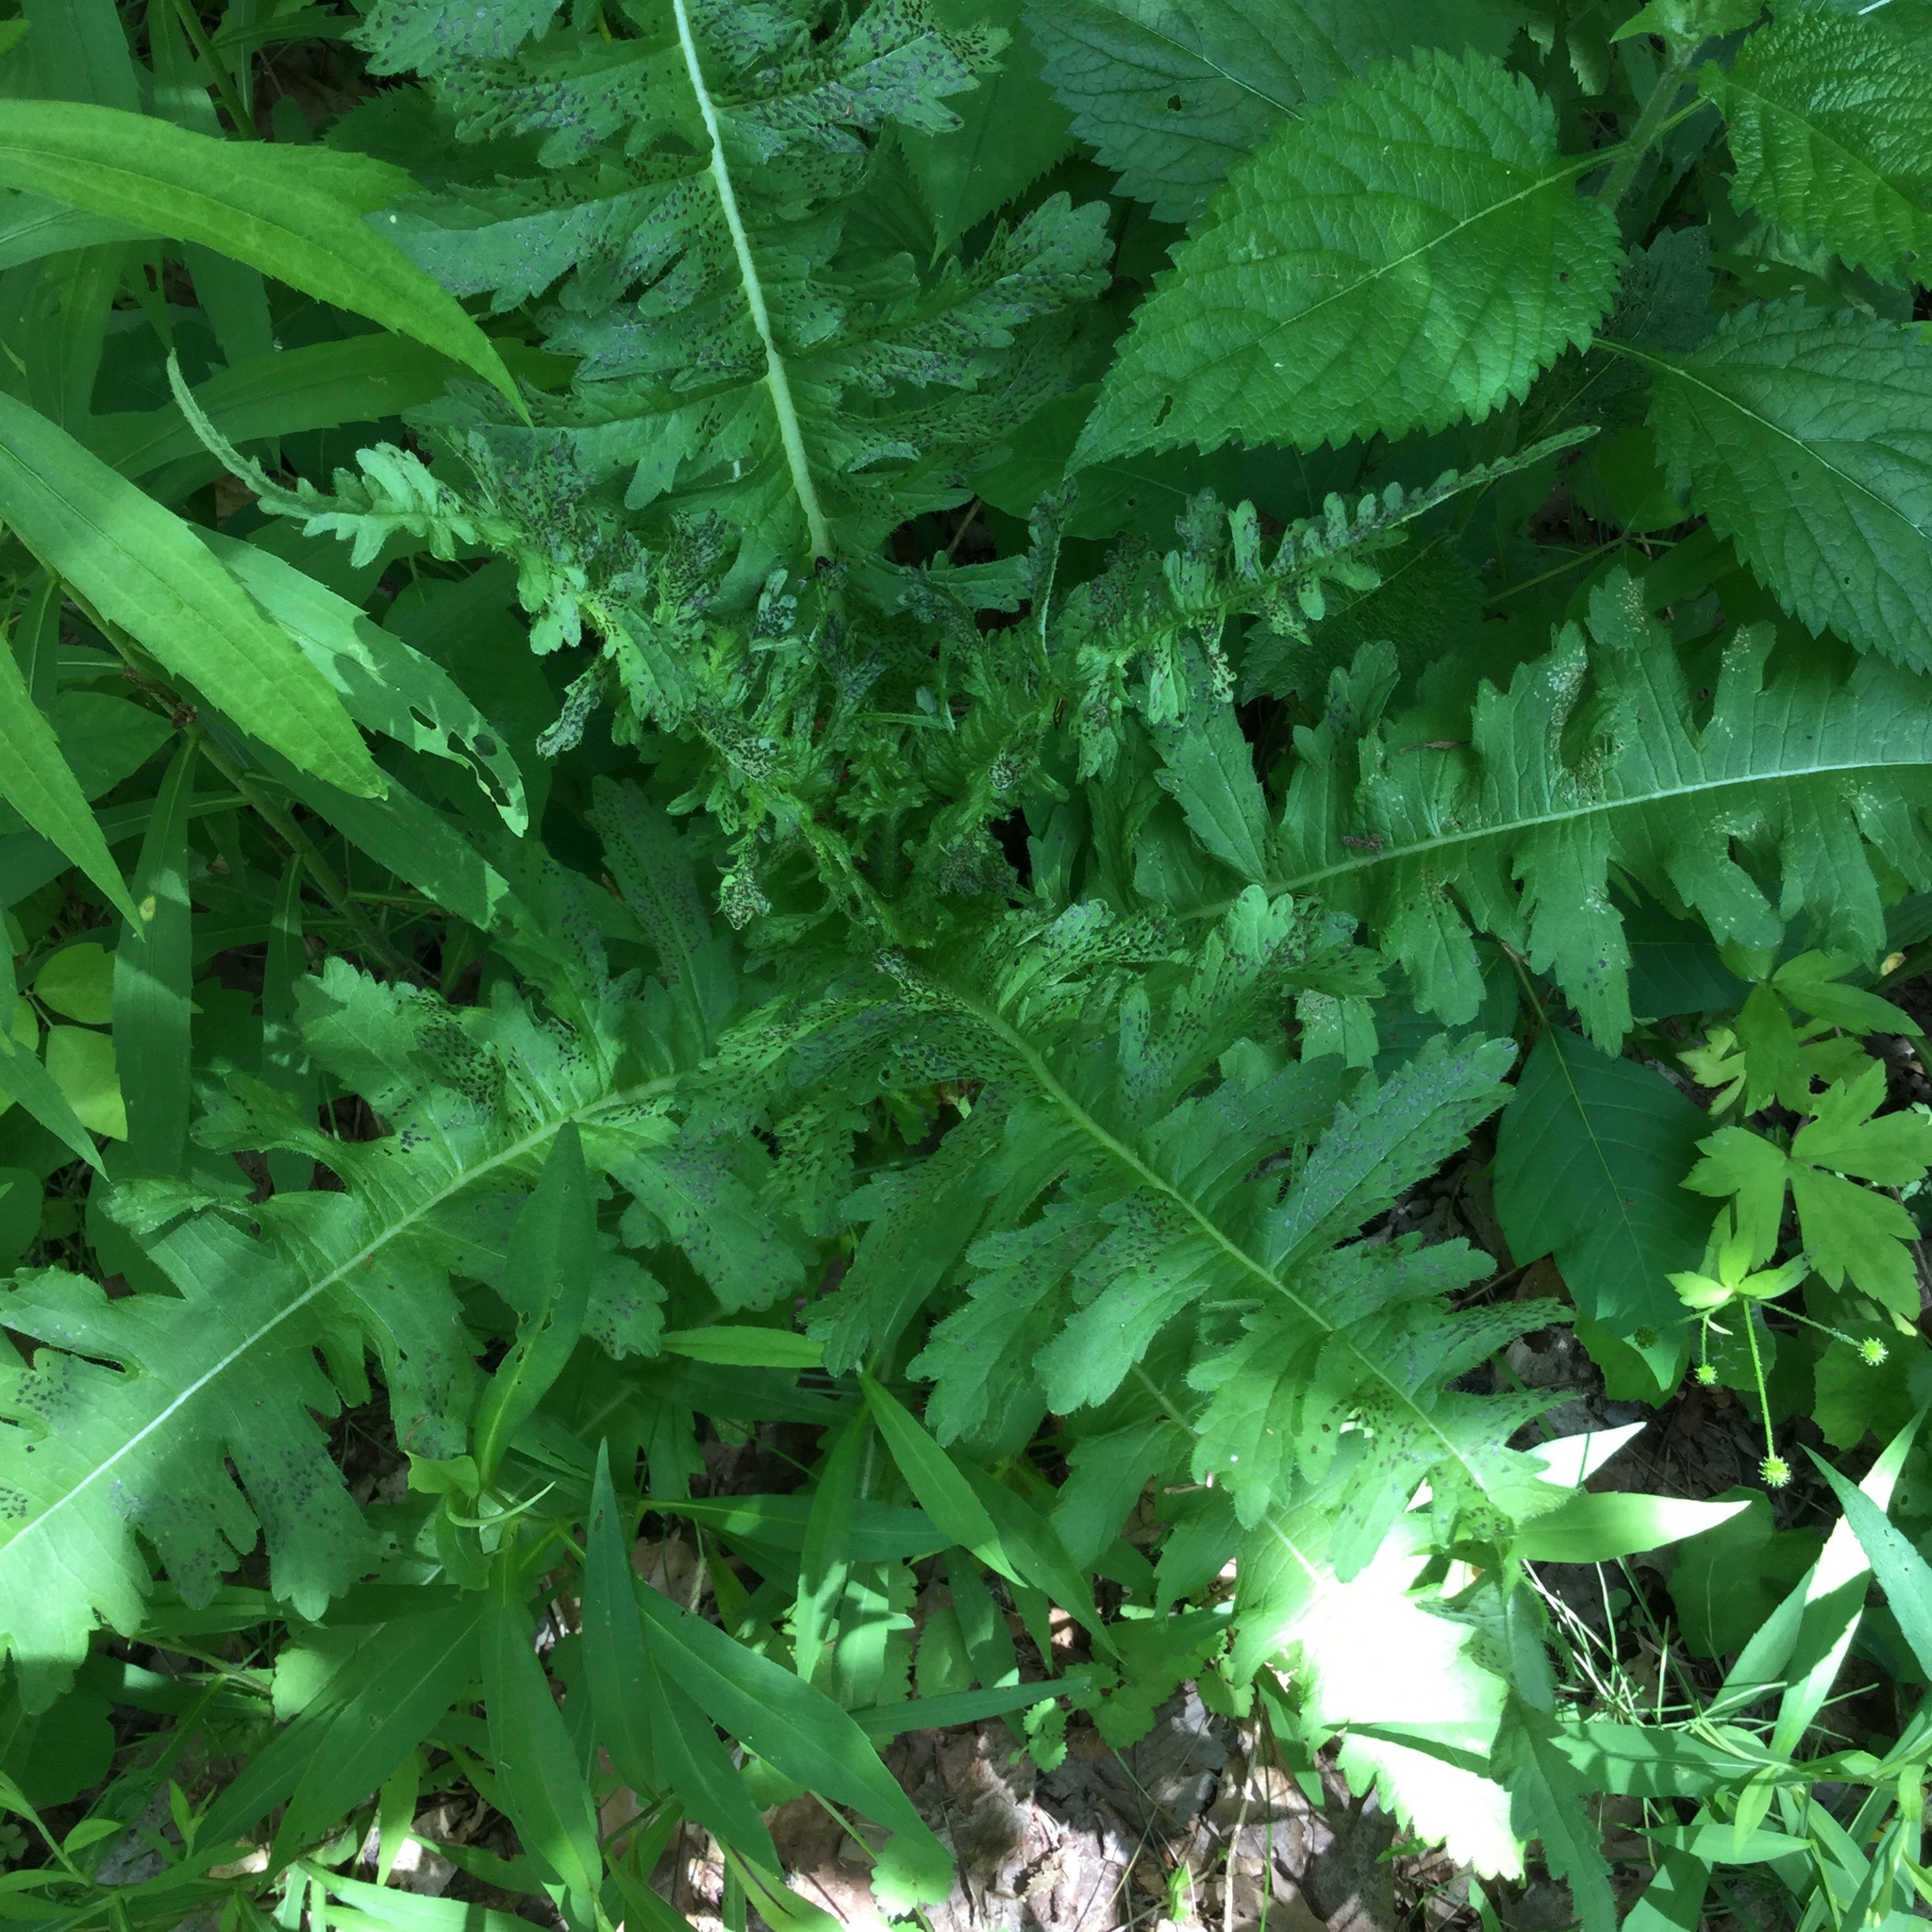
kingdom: Plantae
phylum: Tracheophyta
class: Magnoliopsida
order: Dipsacales
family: Caprifoliaceae
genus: Dipsacus
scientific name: Dipsacus laciniatus
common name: Cut-leaved teasel
